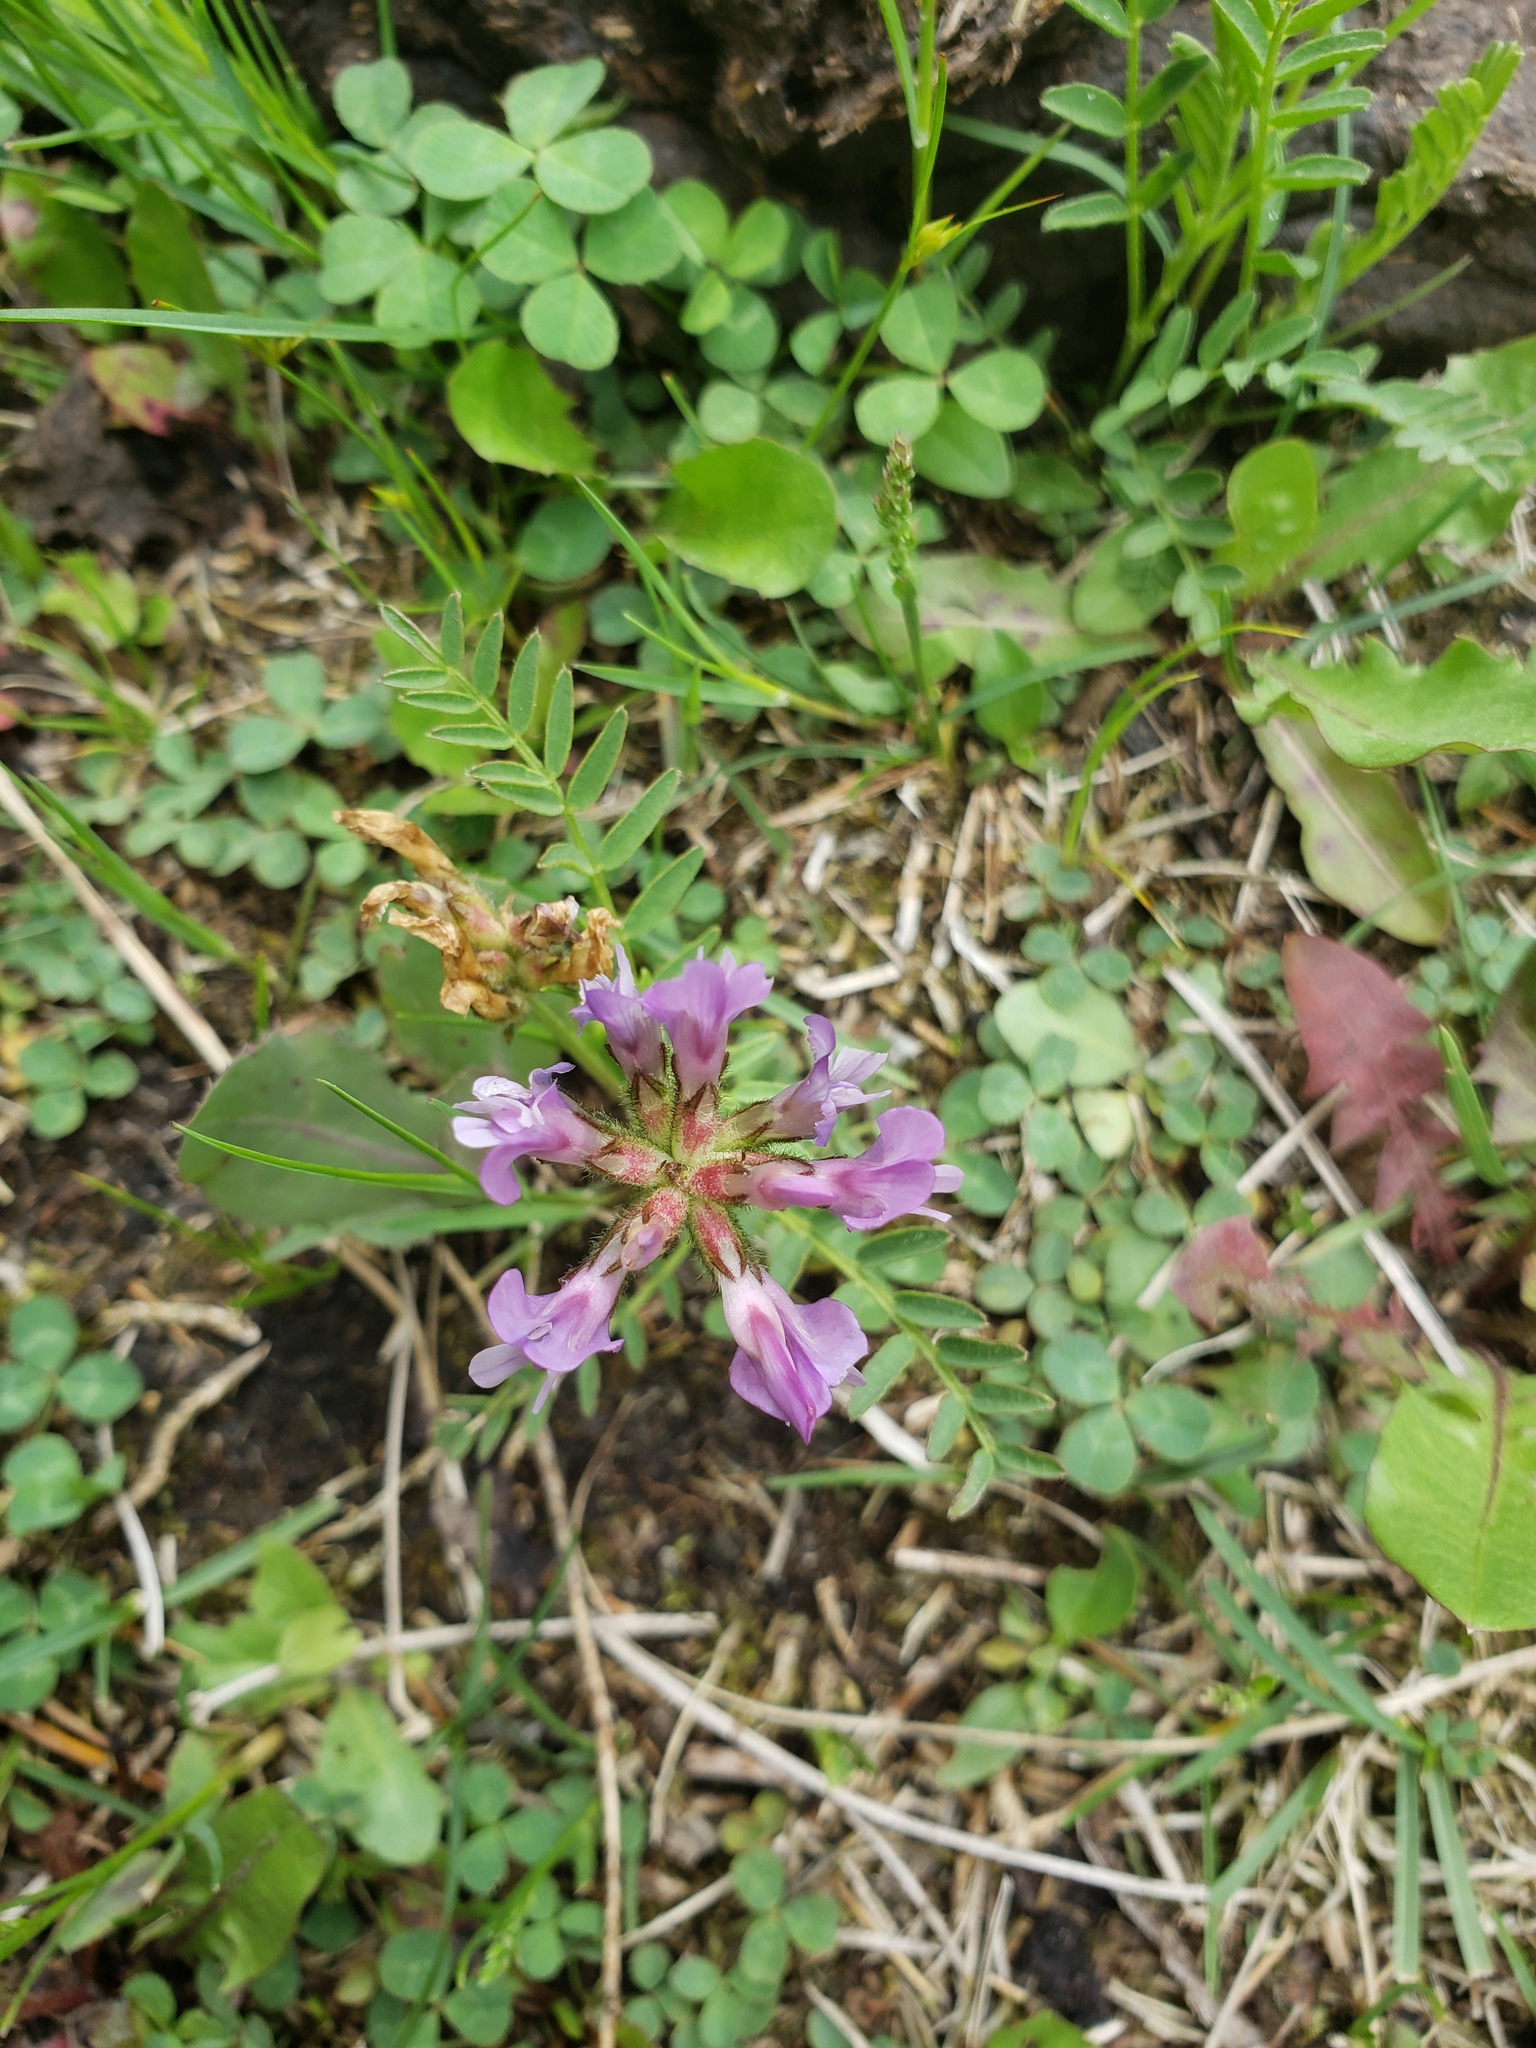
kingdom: Plantae
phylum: Tracheophyta
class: Magnoliopsida
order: Fabales
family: Fabaceae
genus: Astragalus
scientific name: Astragalus agrestis
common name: Field milk-vetch
